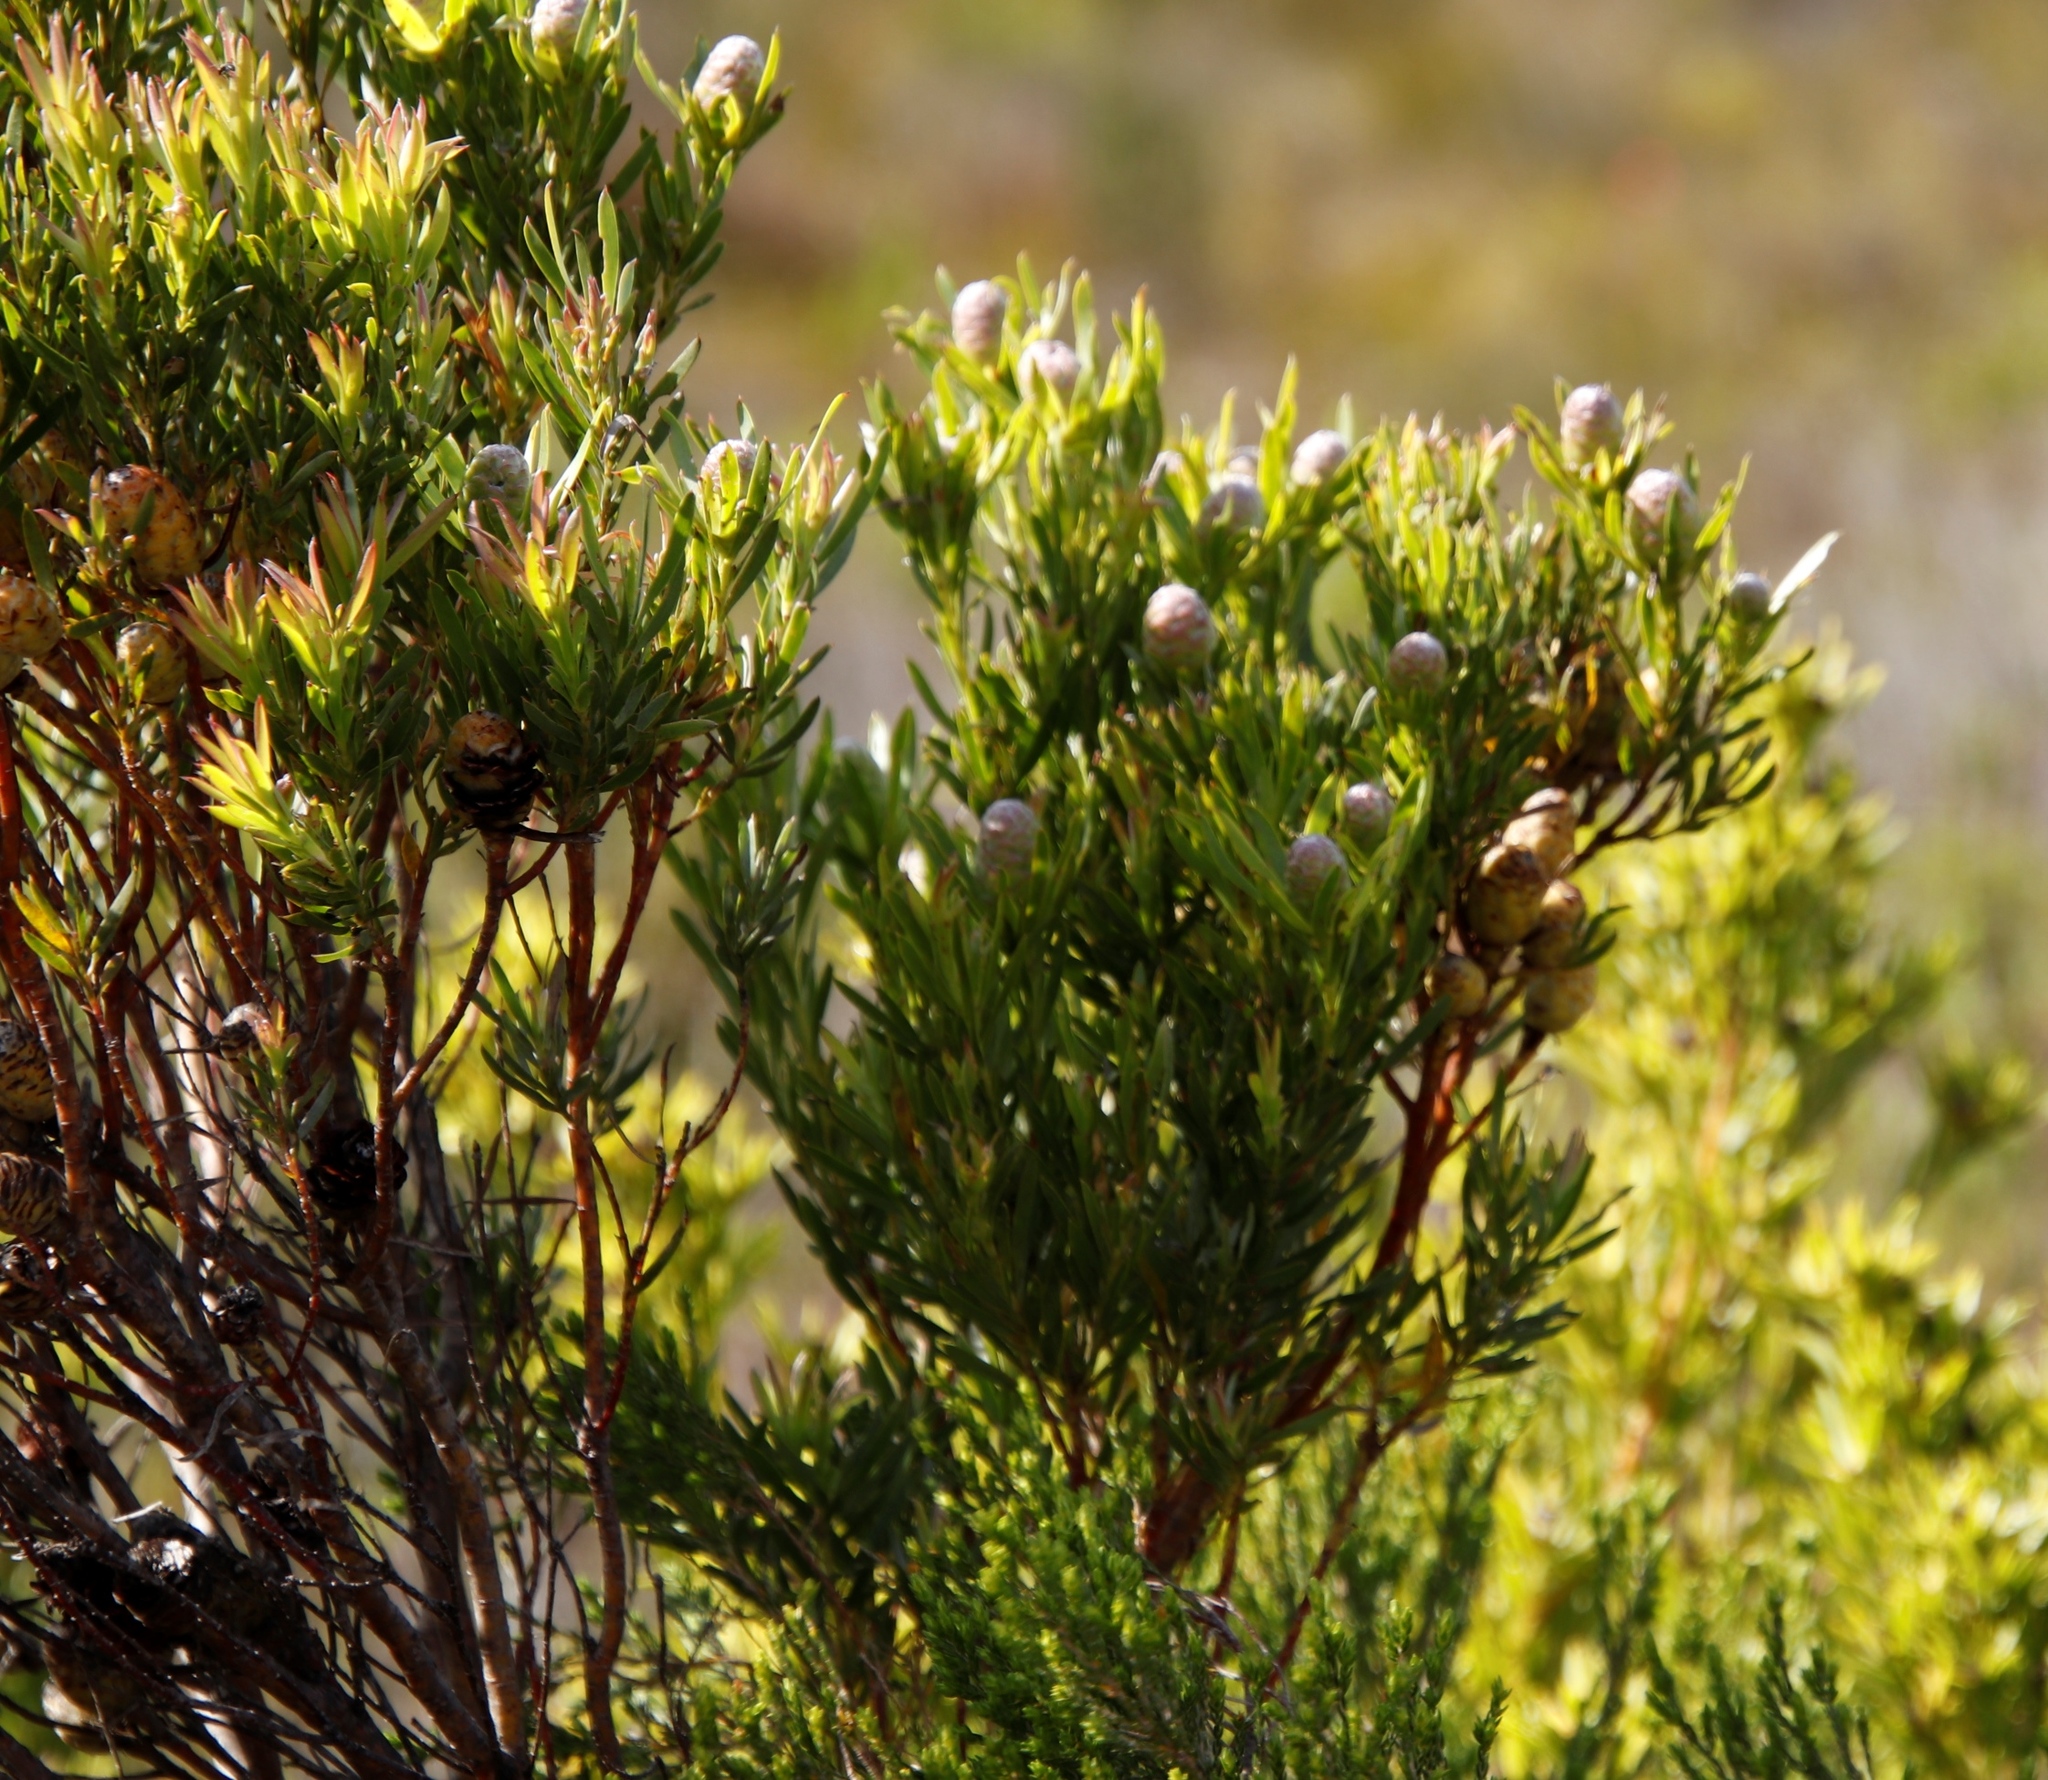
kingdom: Plantae
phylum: Tracheophyta
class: Magnoliopsida
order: Proteales
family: Proteaceae
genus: Leucadendron
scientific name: Leucadendron xanthoconus
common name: Sickle-leaf conebush
